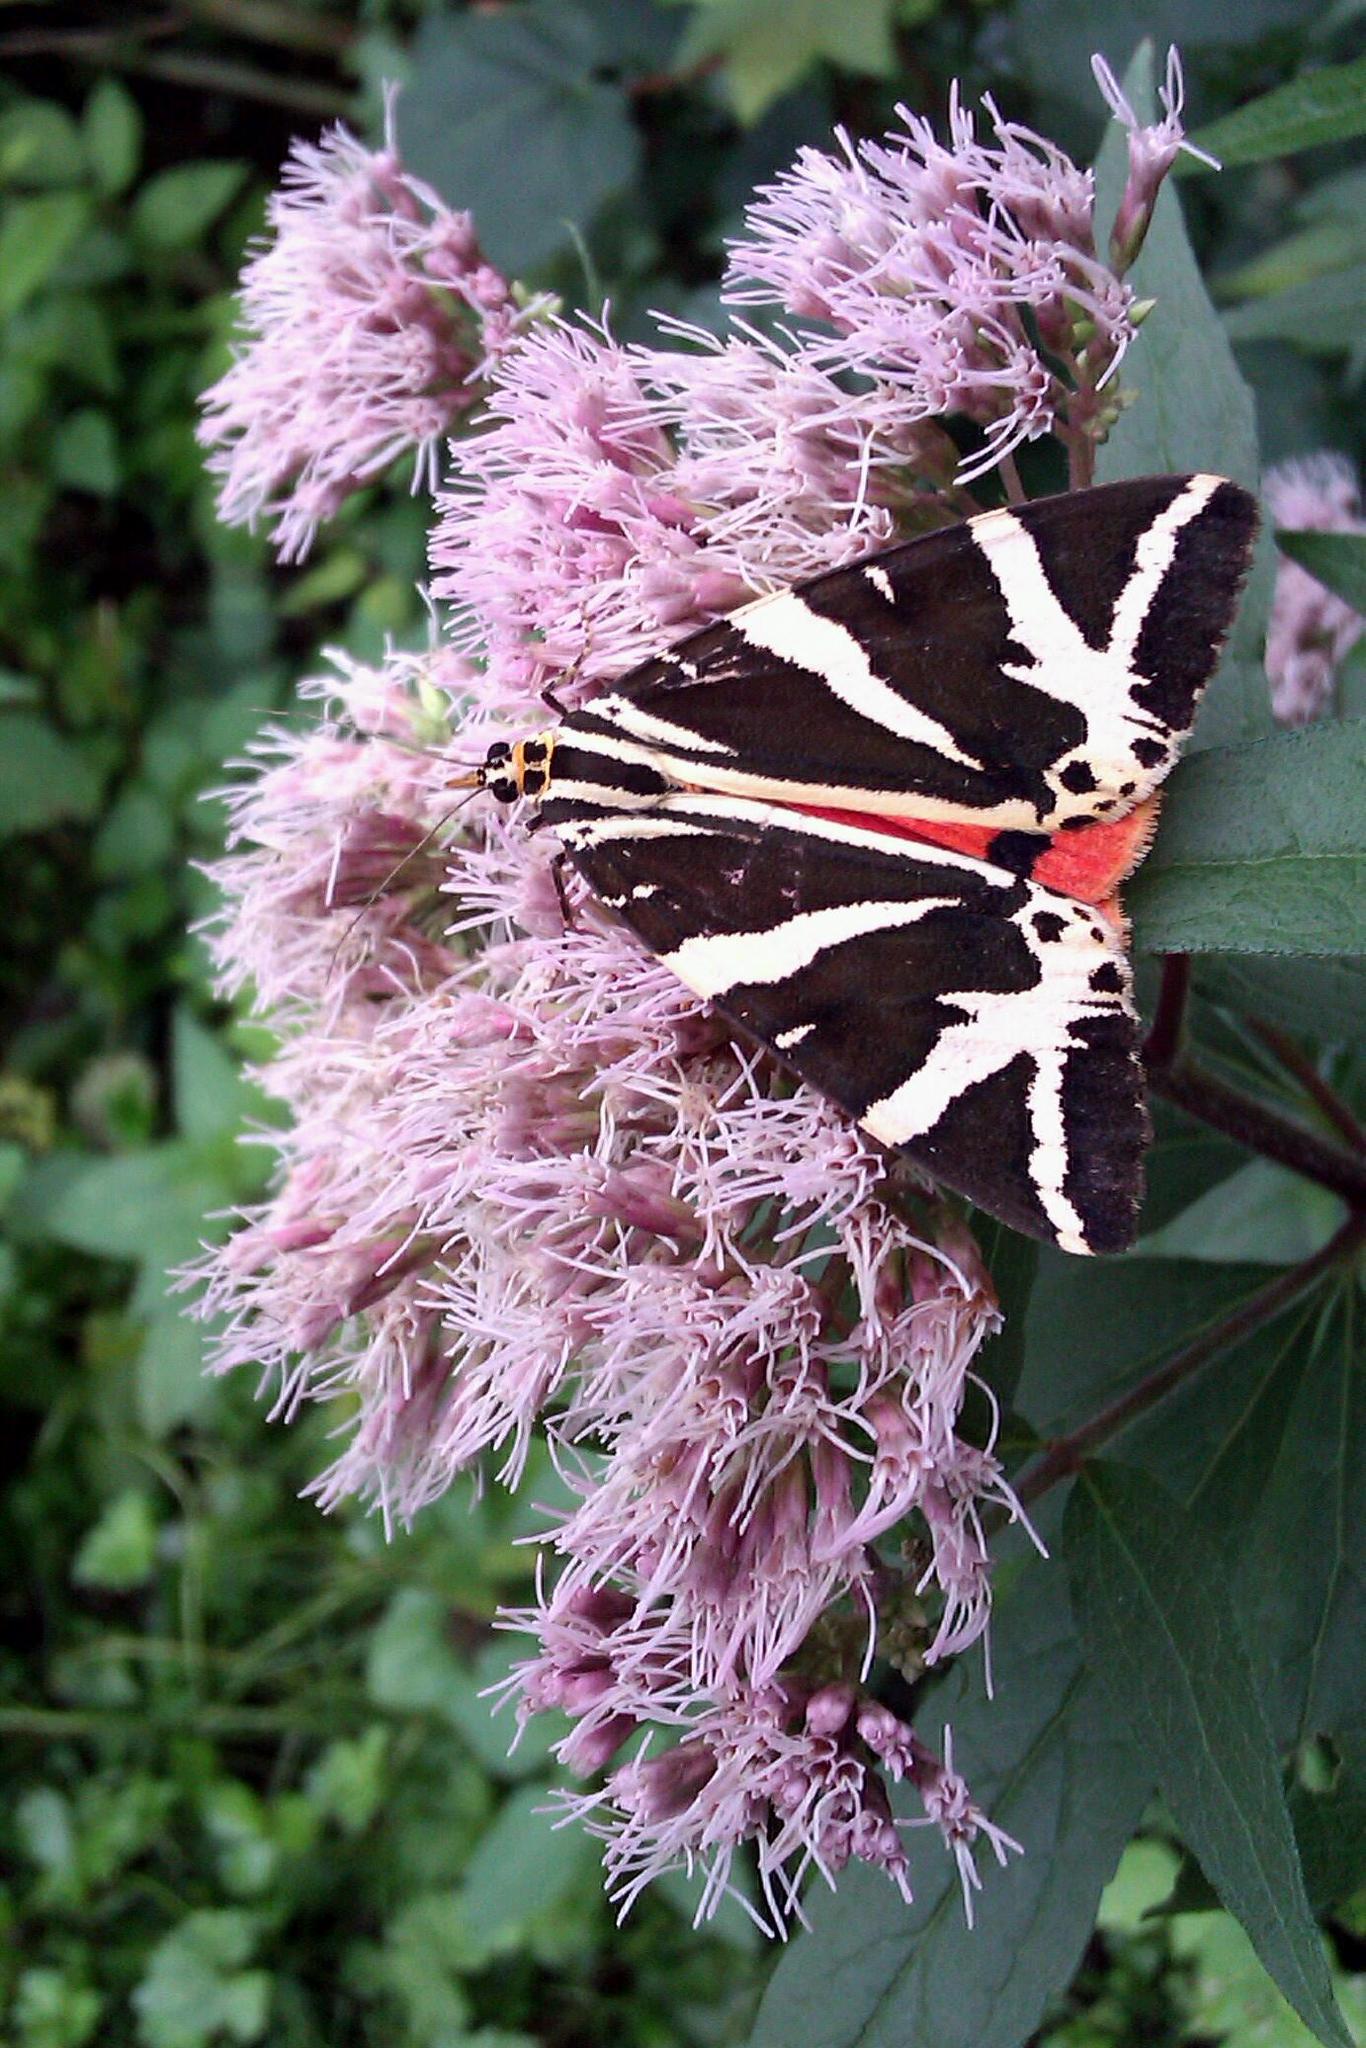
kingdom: Animalia
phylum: Arthropoda
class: Insecta
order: Lepidoptera
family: Erebidae
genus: Euplagia
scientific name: Euplagia quadripunctaria
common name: Jersey tiger
